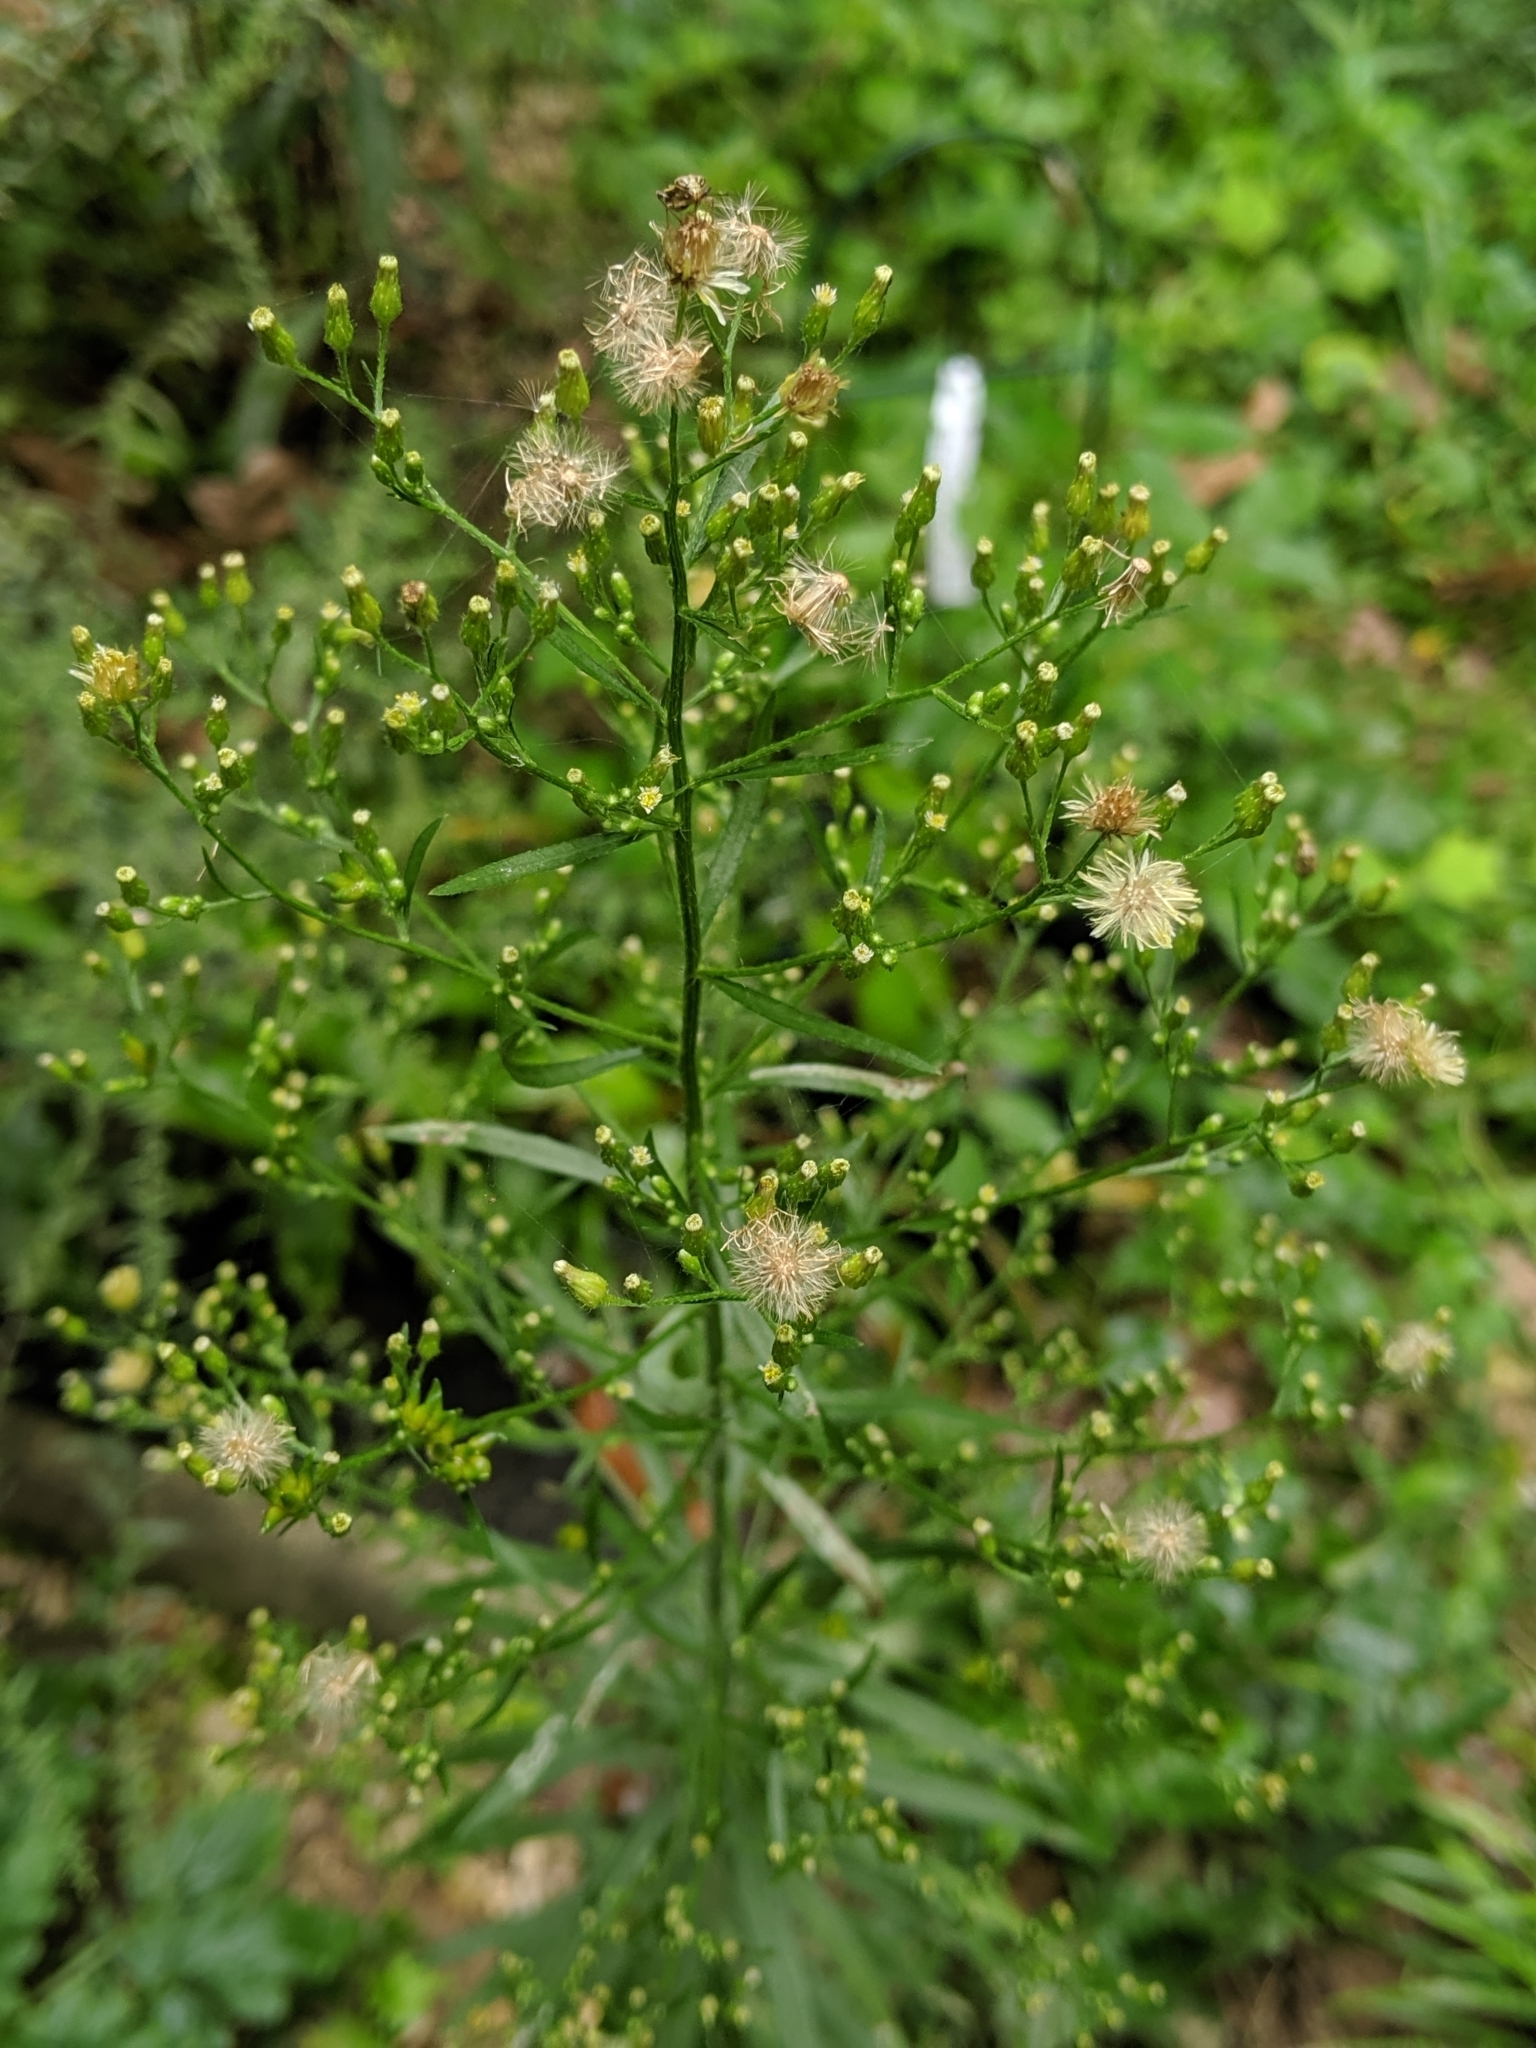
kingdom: Plantae
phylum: Tracheophyta
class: Magnoliopsida
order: Asterales
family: Asteraceae
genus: Erigeron
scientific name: Erigeron canadensis
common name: Canadian fleabane
